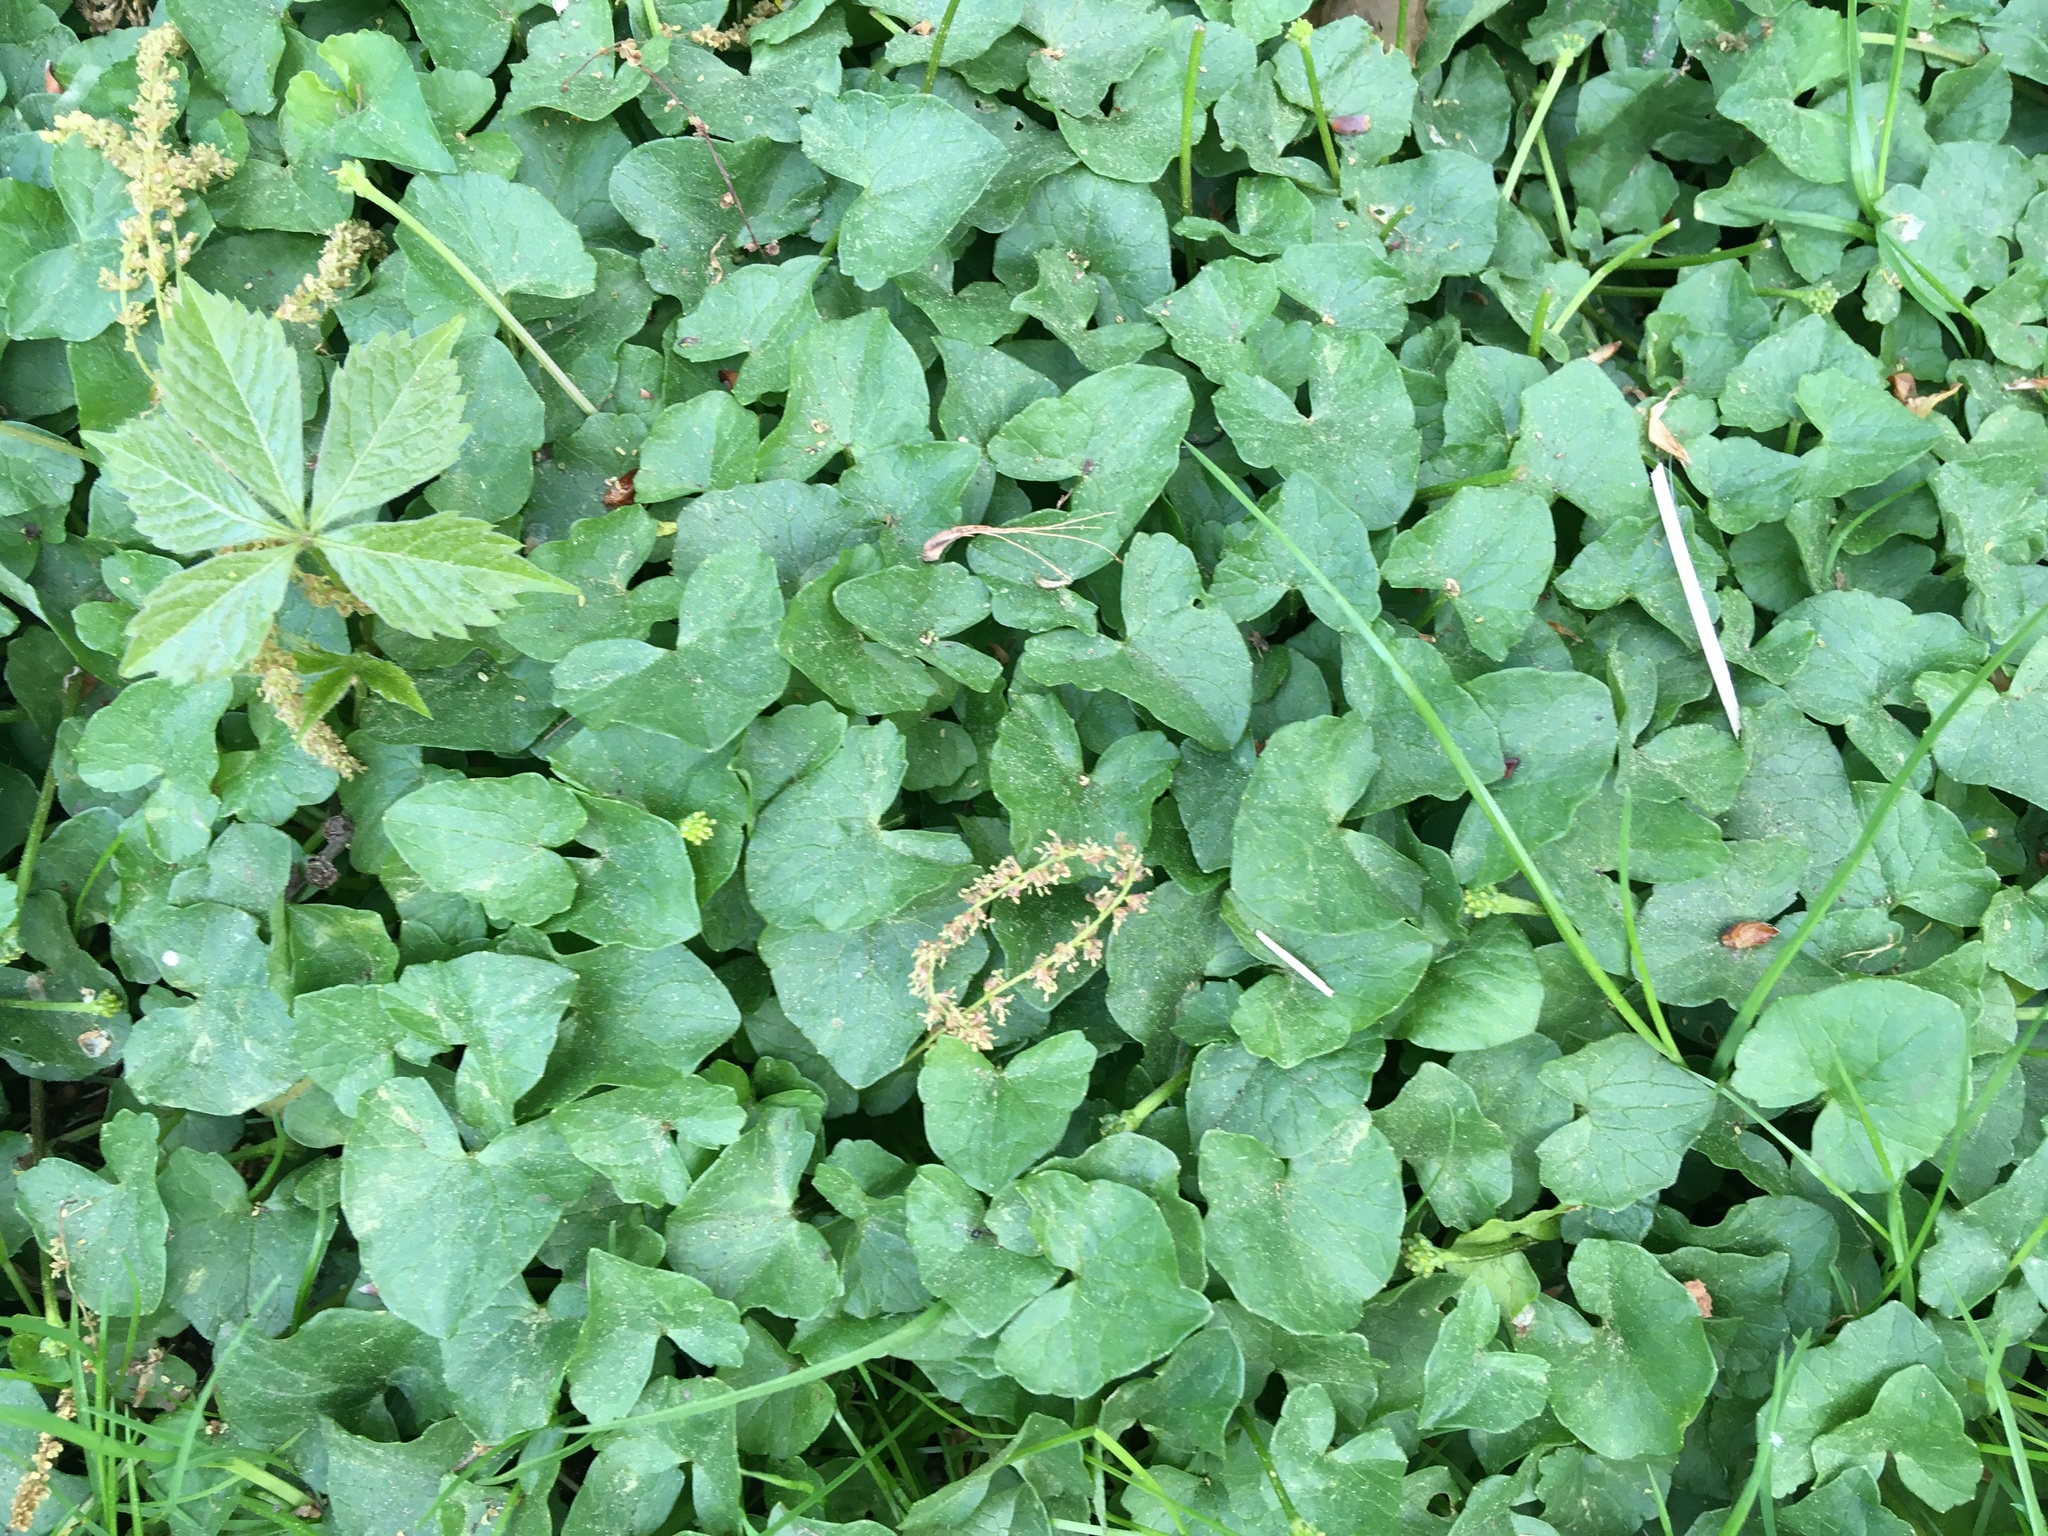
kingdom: Plantae
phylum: Tracheophyta
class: Magnoliopsida
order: Ranunculales
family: Ranunculaceae
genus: Ficaria
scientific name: Ficaria verna
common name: Lesser celandine
